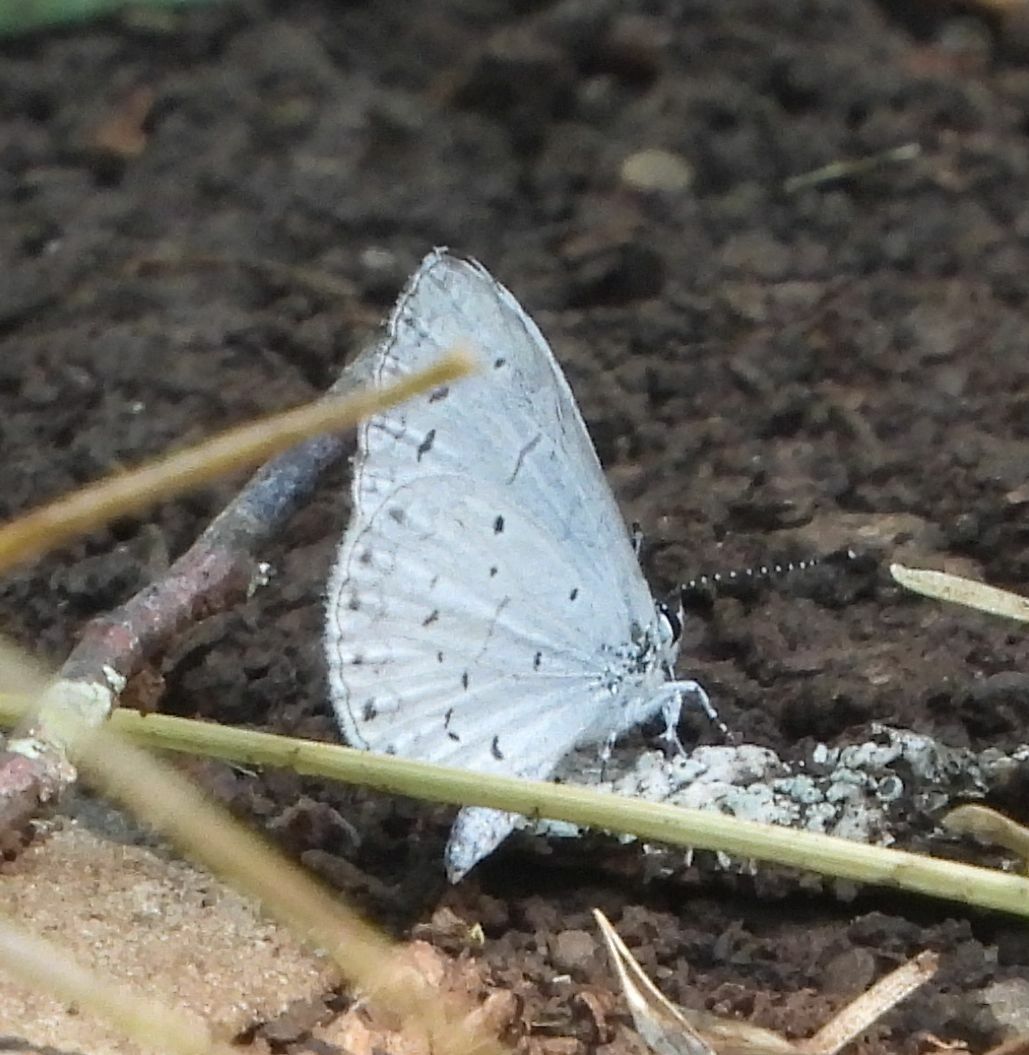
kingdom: Animalia
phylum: Arthropoda
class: Insecta
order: Lepidoptera
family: Lycaenidae
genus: Cyaniris
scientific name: Cyaniris neglecta
